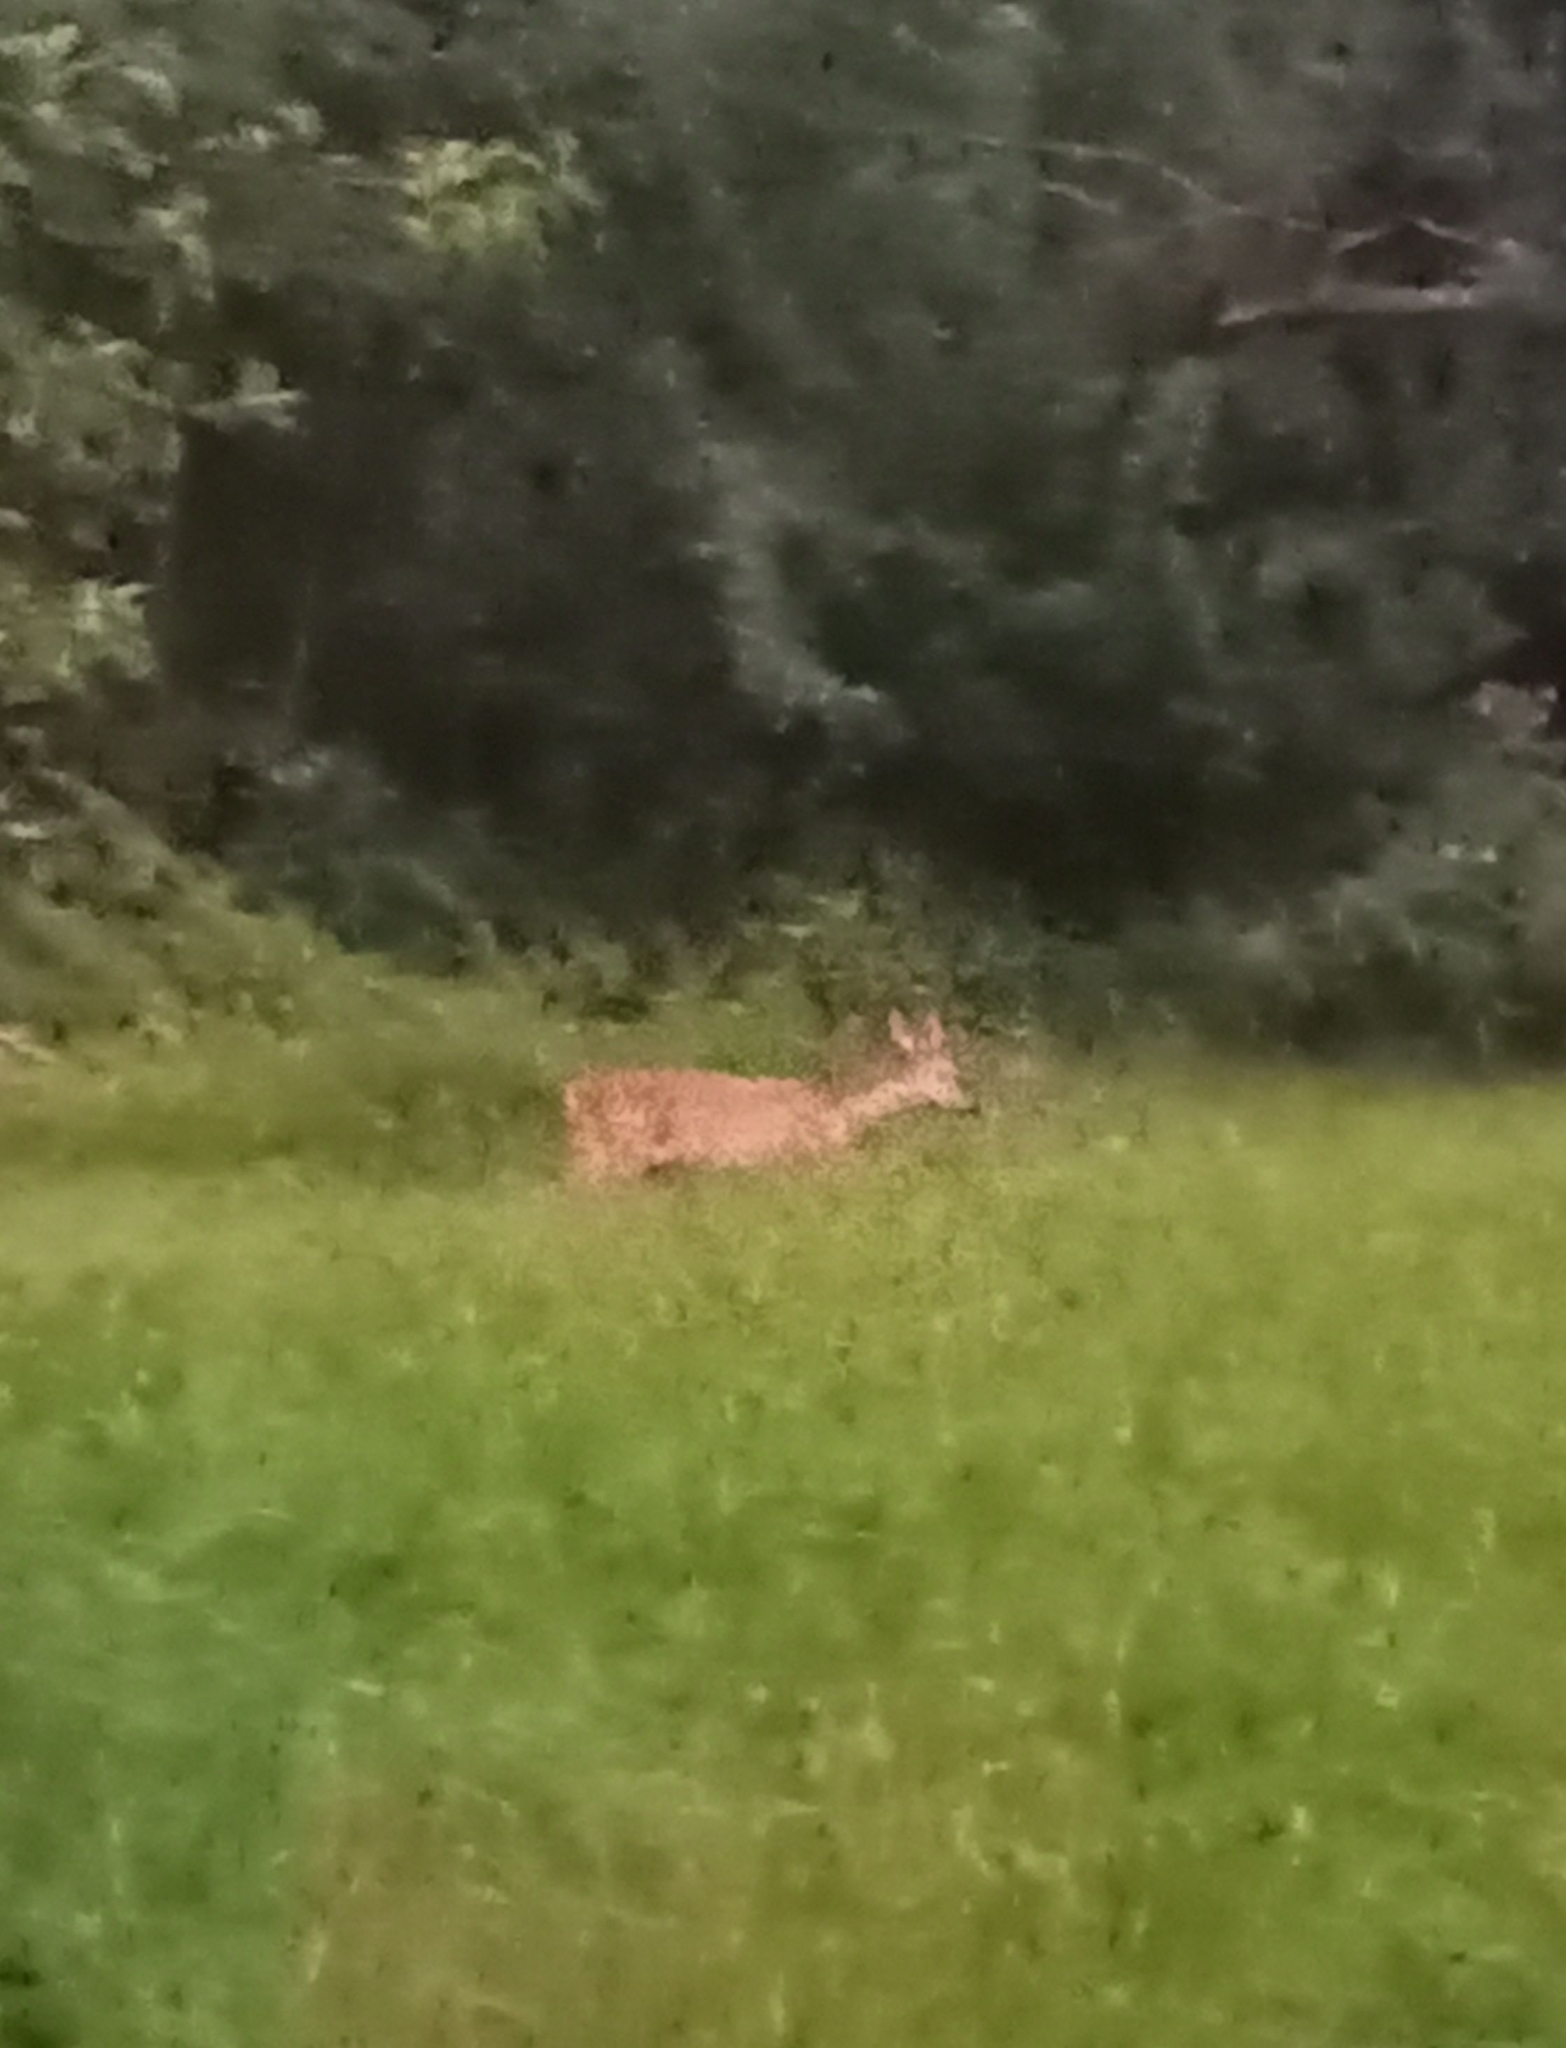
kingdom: Animalia
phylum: Chordata
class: Mammalia
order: Artiodactyla
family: Cervidae
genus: Capreolus
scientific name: Capreolus capreolus
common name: Western roe deer
